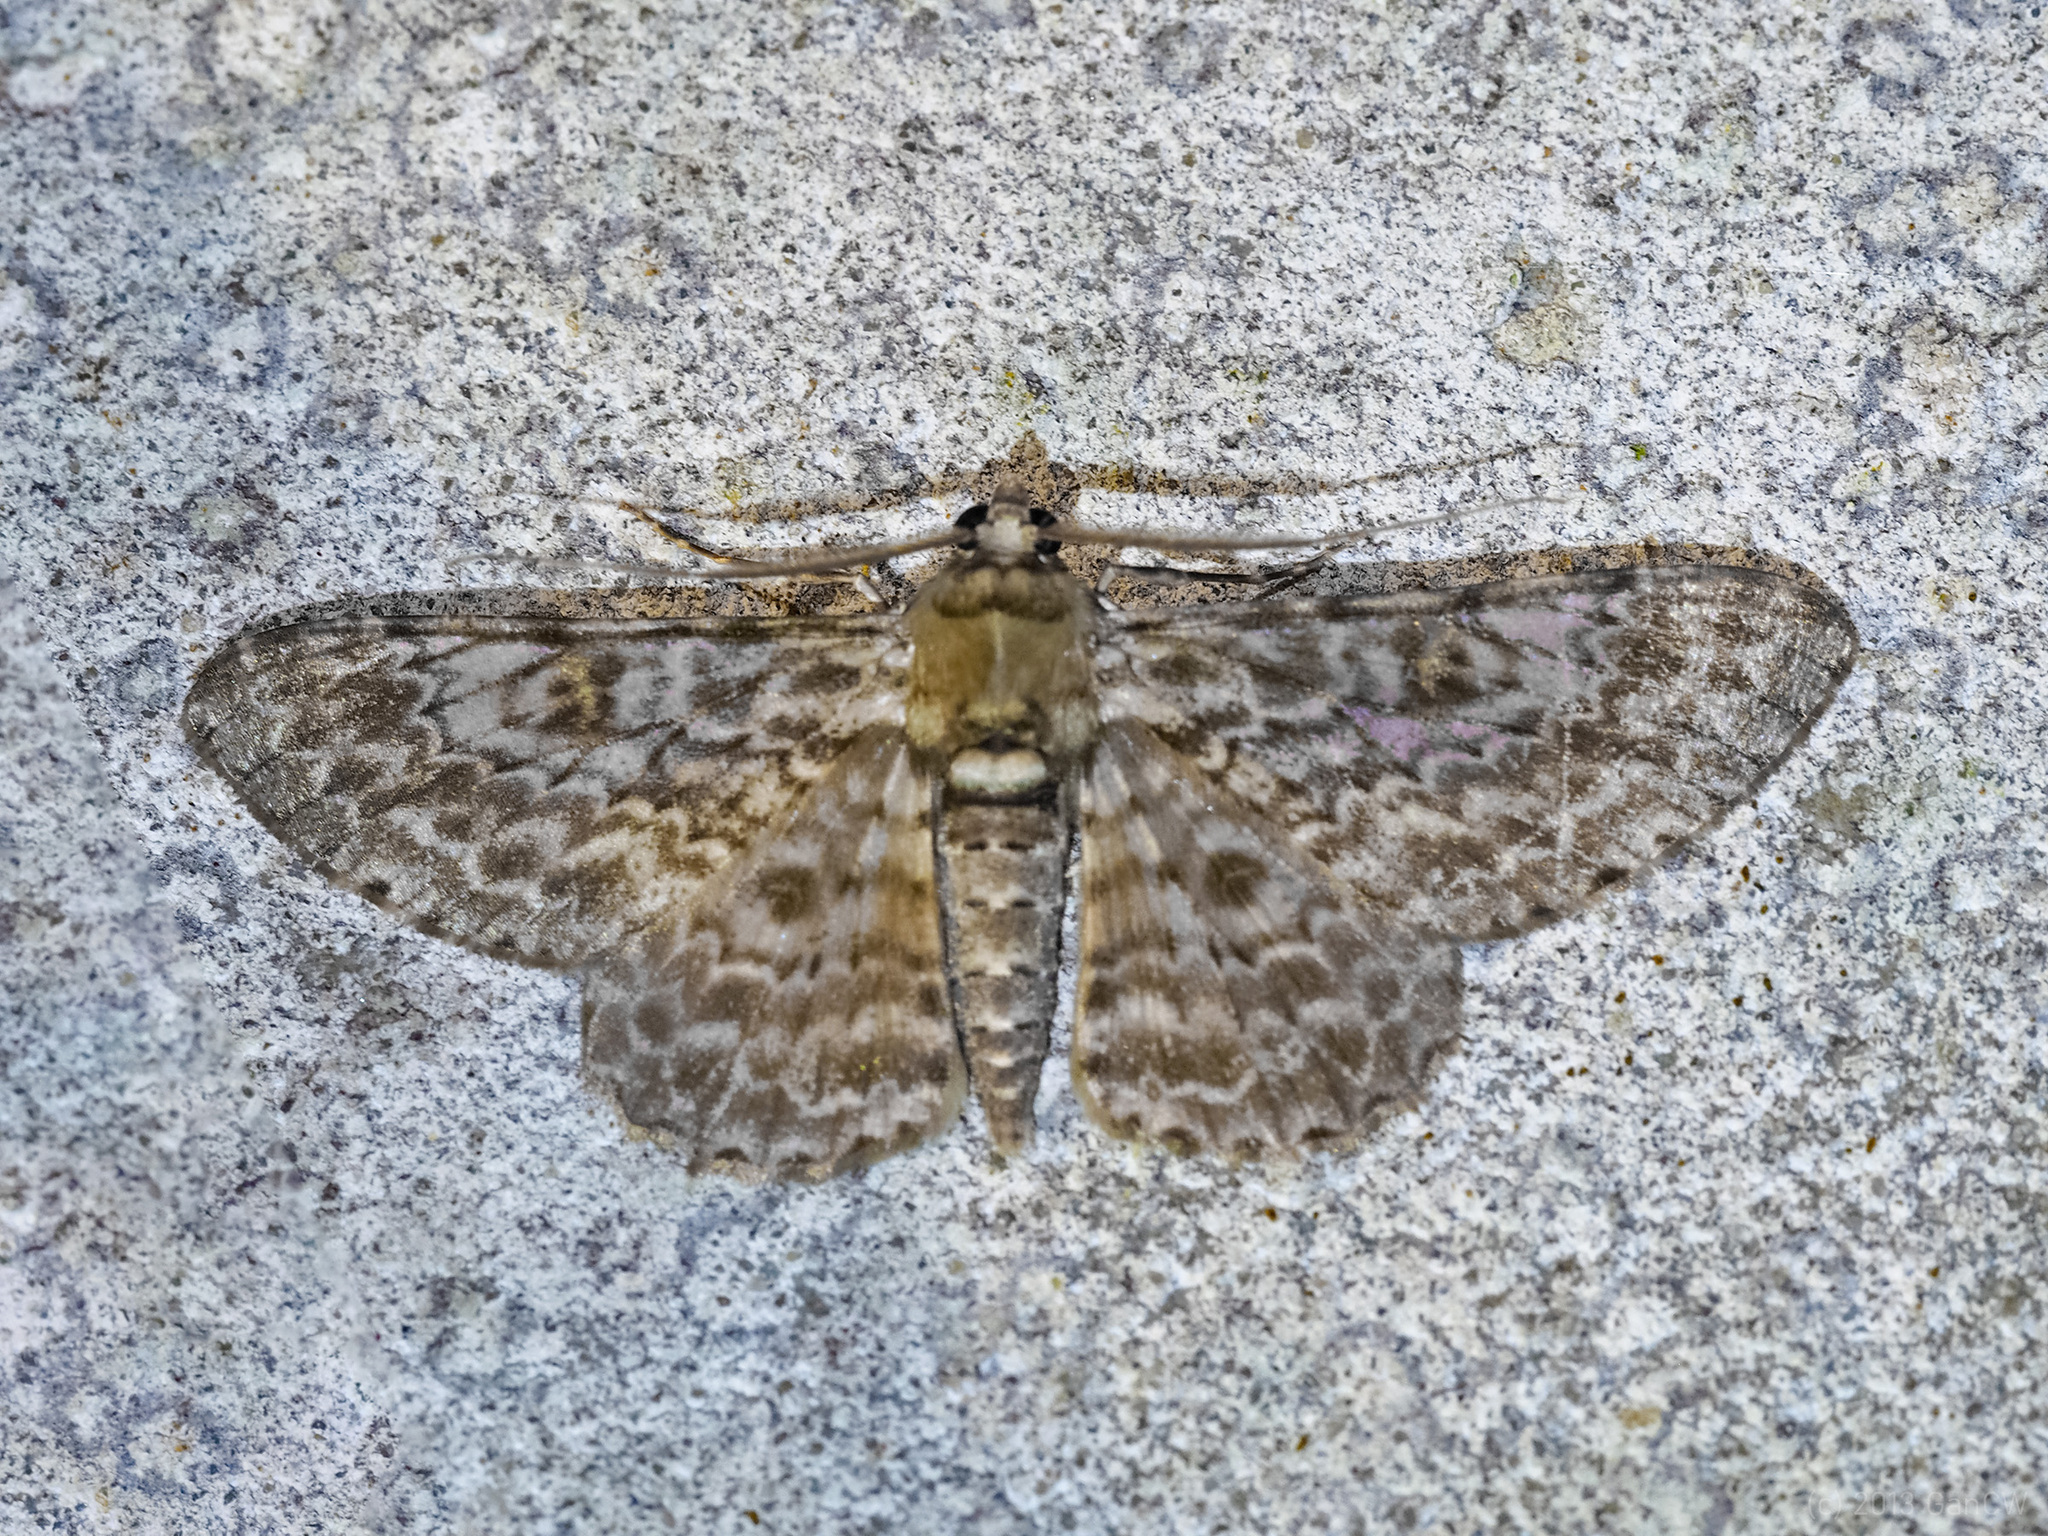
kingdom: Animalia
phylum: Arthropoda
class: Insecta
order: Lepidoptera
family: Geometridae
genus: Cleora
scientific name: Cleora propulsaria
